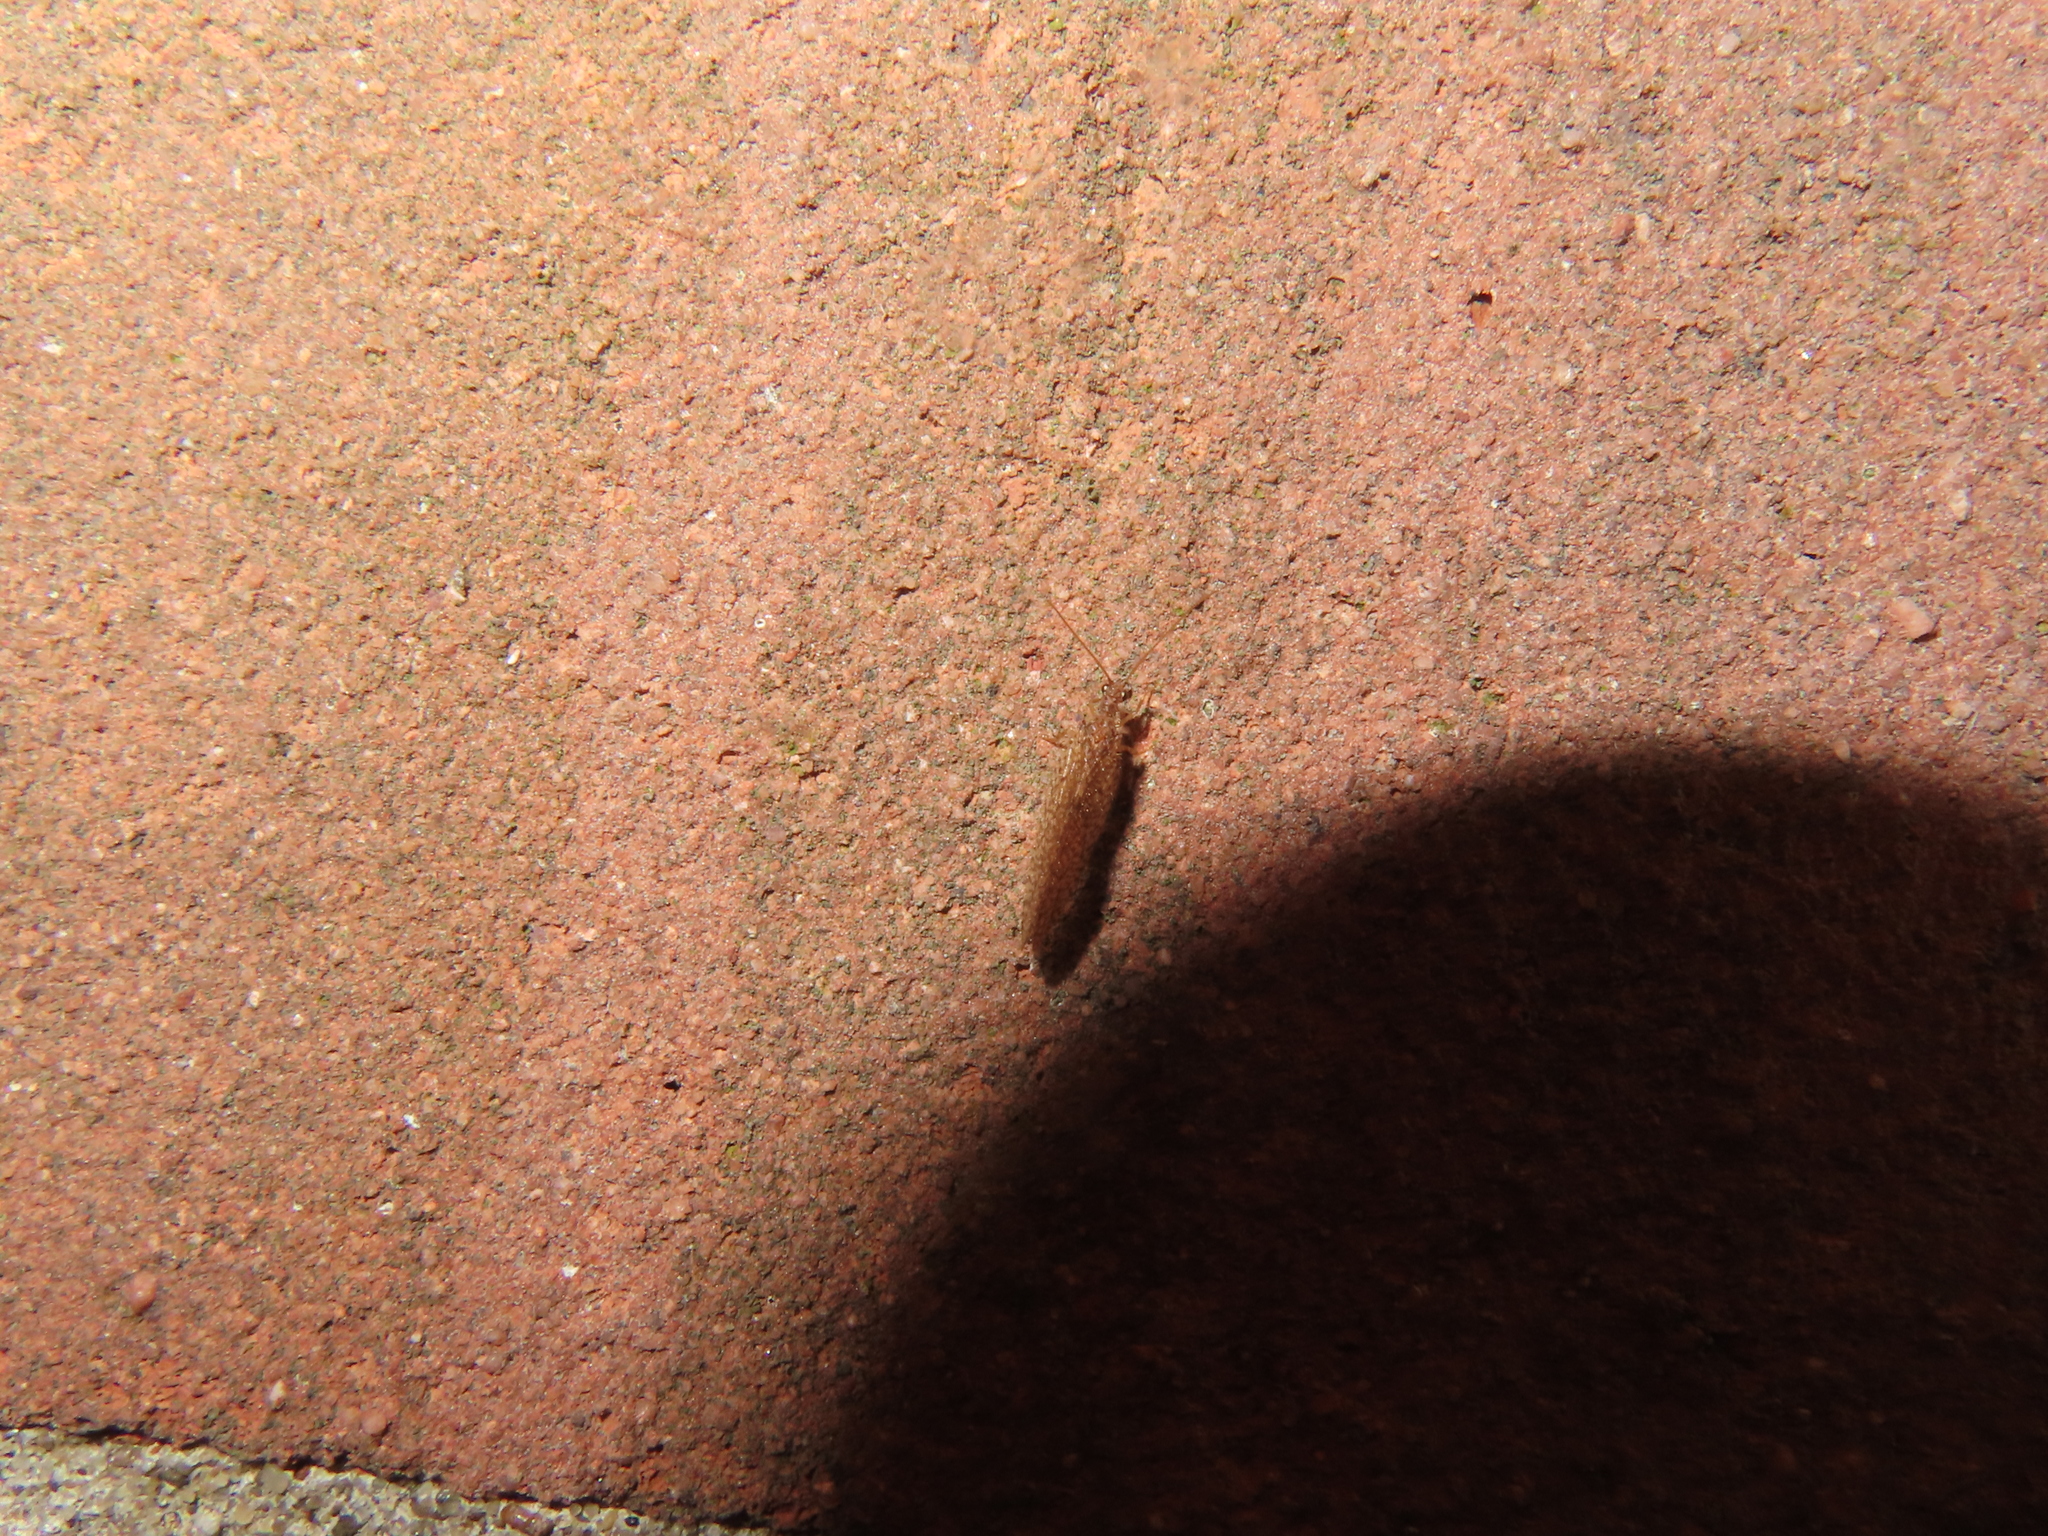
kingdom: Animalia
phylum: Arthropoda
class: Insecta
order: Neuroptera
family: Hemerobiidae
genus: Micromus
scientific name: Micromus posticus
